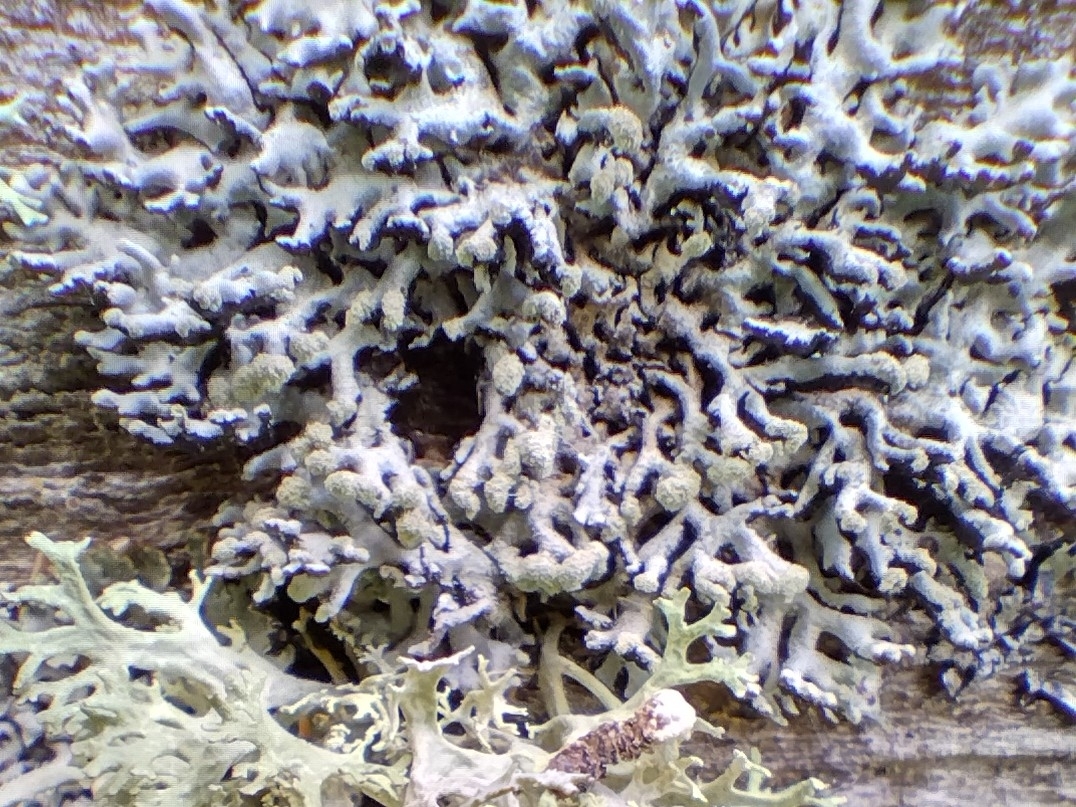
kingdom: Fungi
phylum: Ascomycota
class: Lecanoromycetes
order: Lecanorales
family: Parmeliaceae
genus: Hypogymnia
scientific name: Hypogymnia tubulosa
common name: Powder-headed tube lichen
